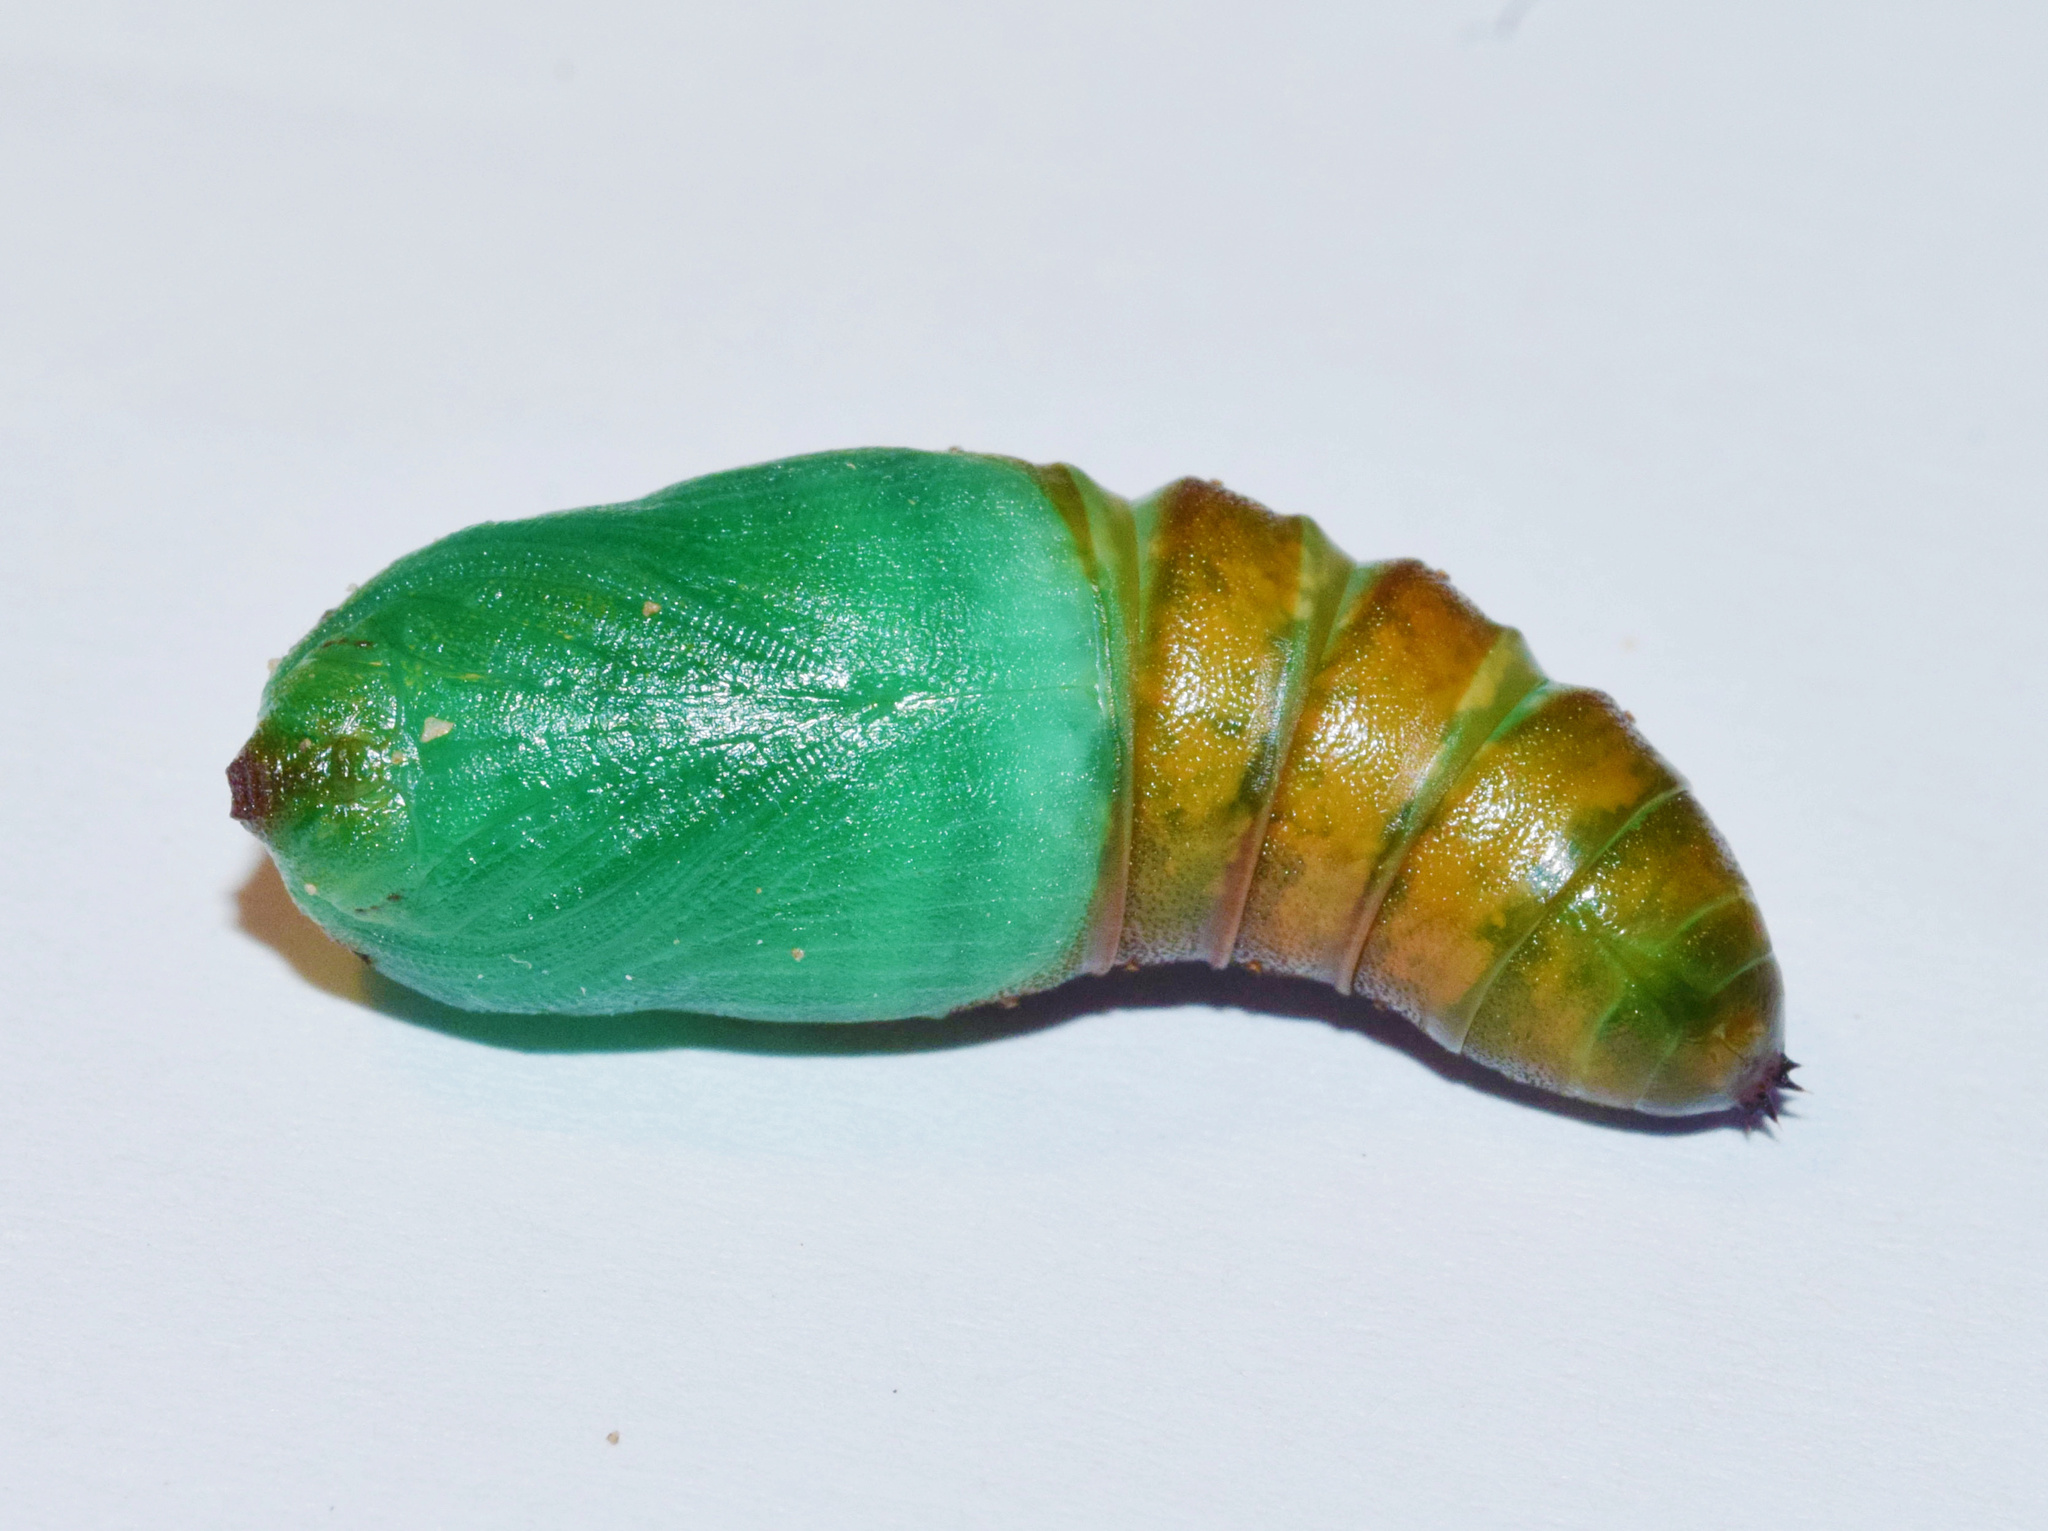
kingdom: Animalia
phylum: Arthropoda
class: Insecta
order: Lepidoptera
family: Notodontidae
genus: Antheua
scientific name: Antheua tricolor
